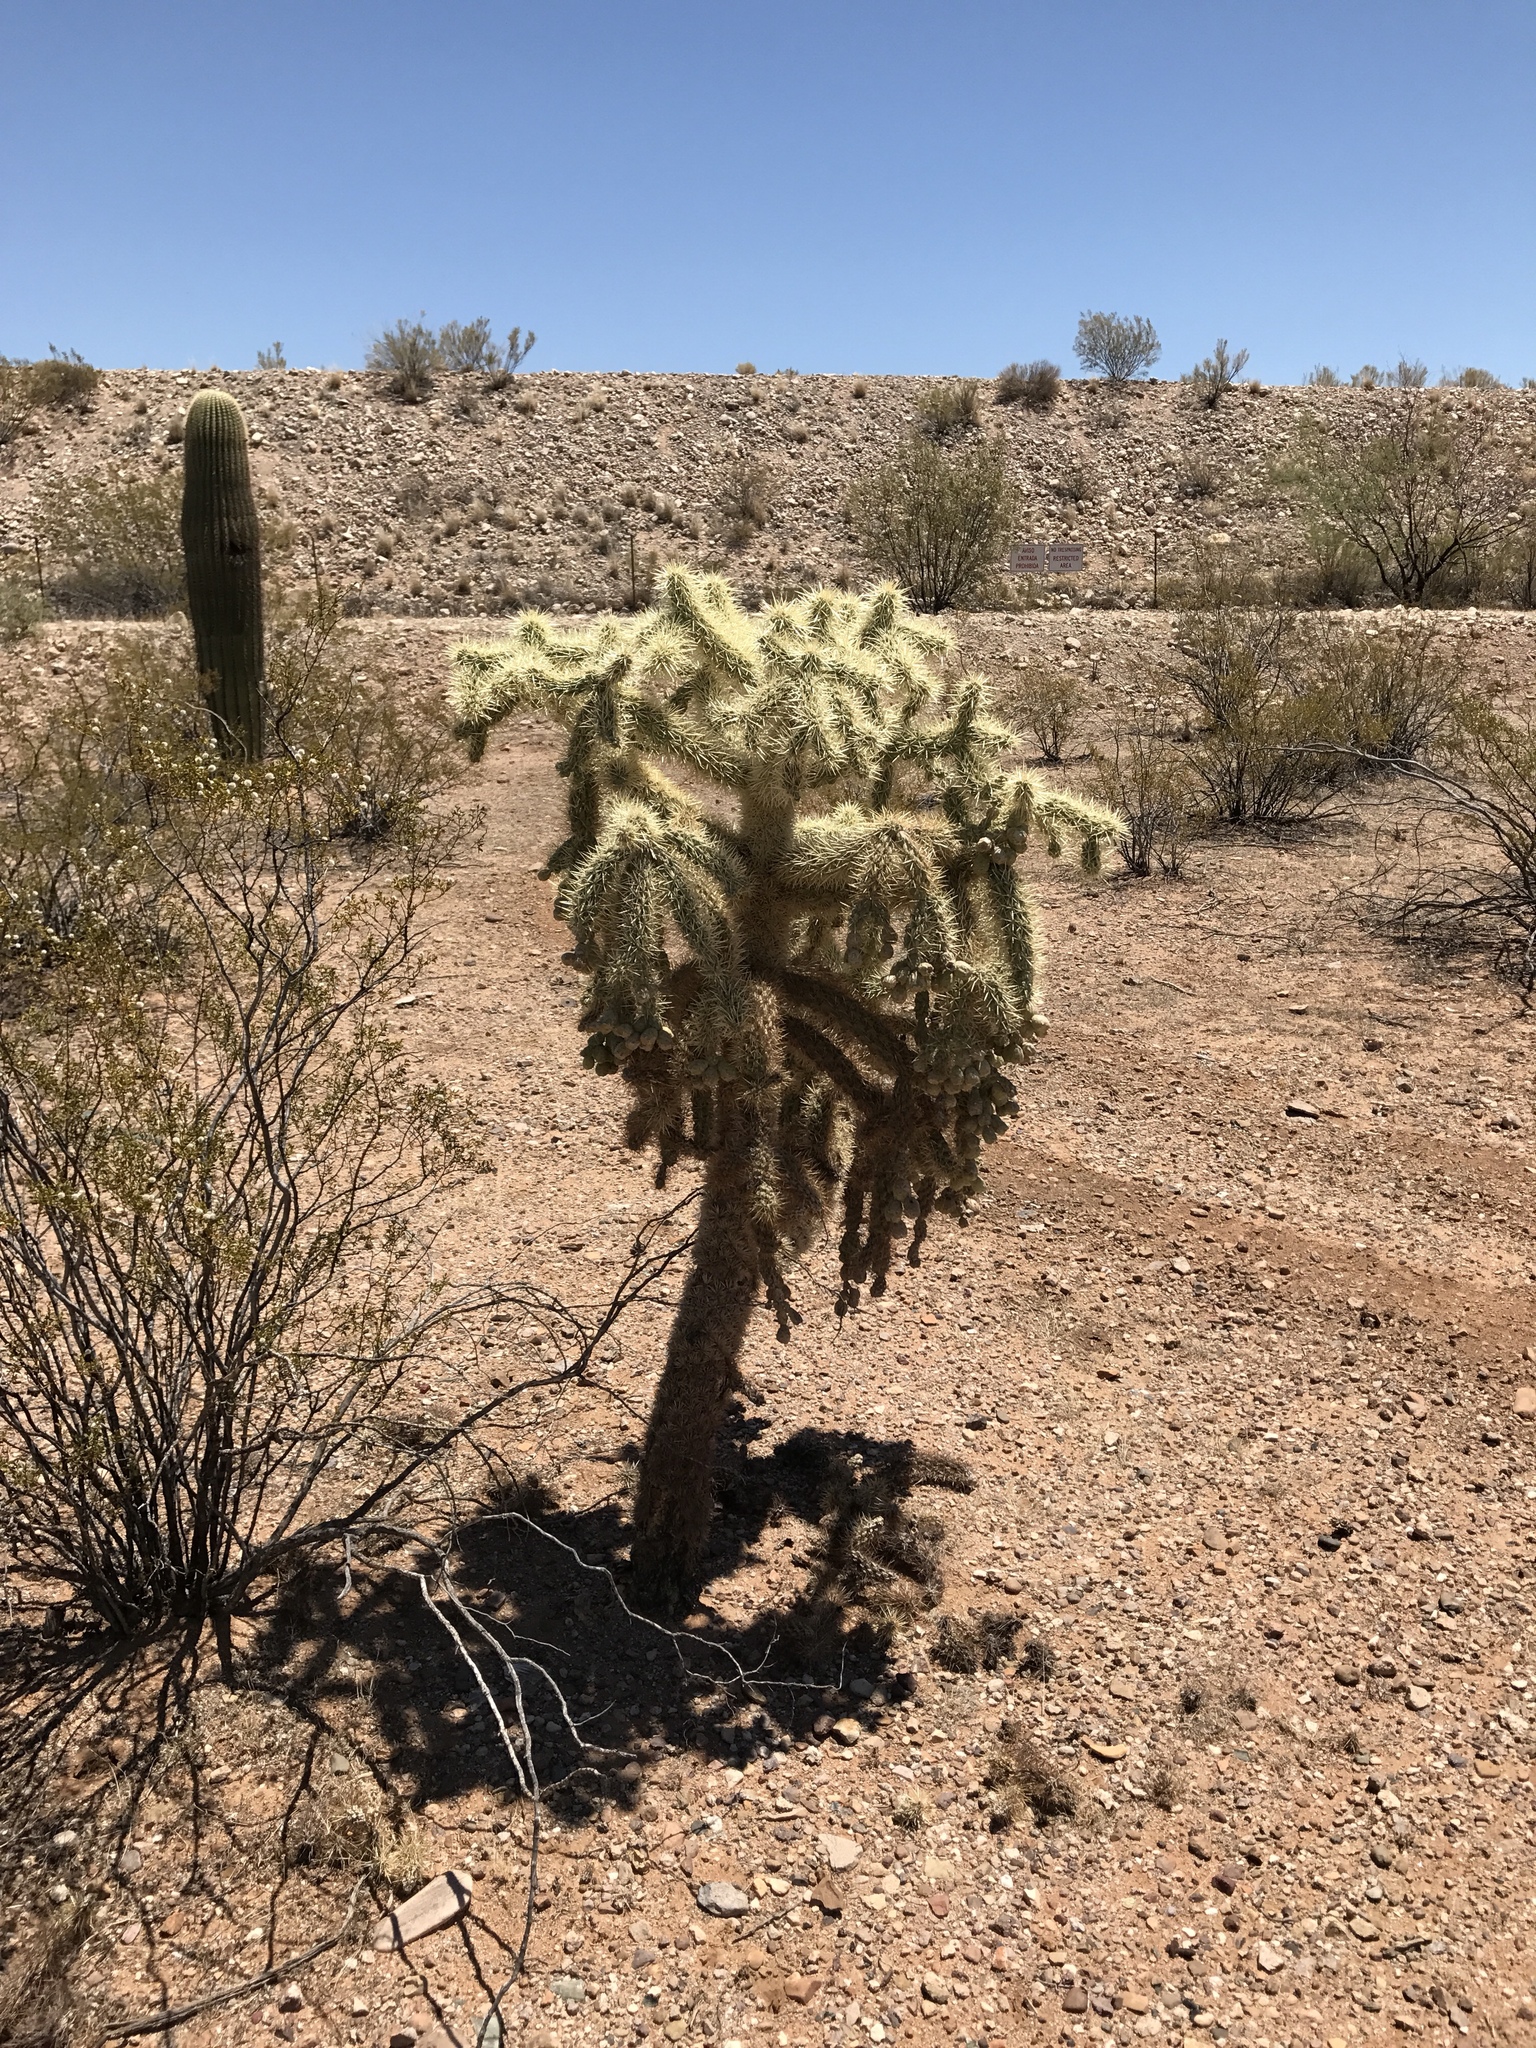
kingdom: Plantae
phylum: Tracheophyta
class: Magnoliopsida
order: Caryophyllales
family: Cactaceae
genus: Cylindropuntia
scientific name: Cylindropuntia fulgida
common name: Jumping cholla
